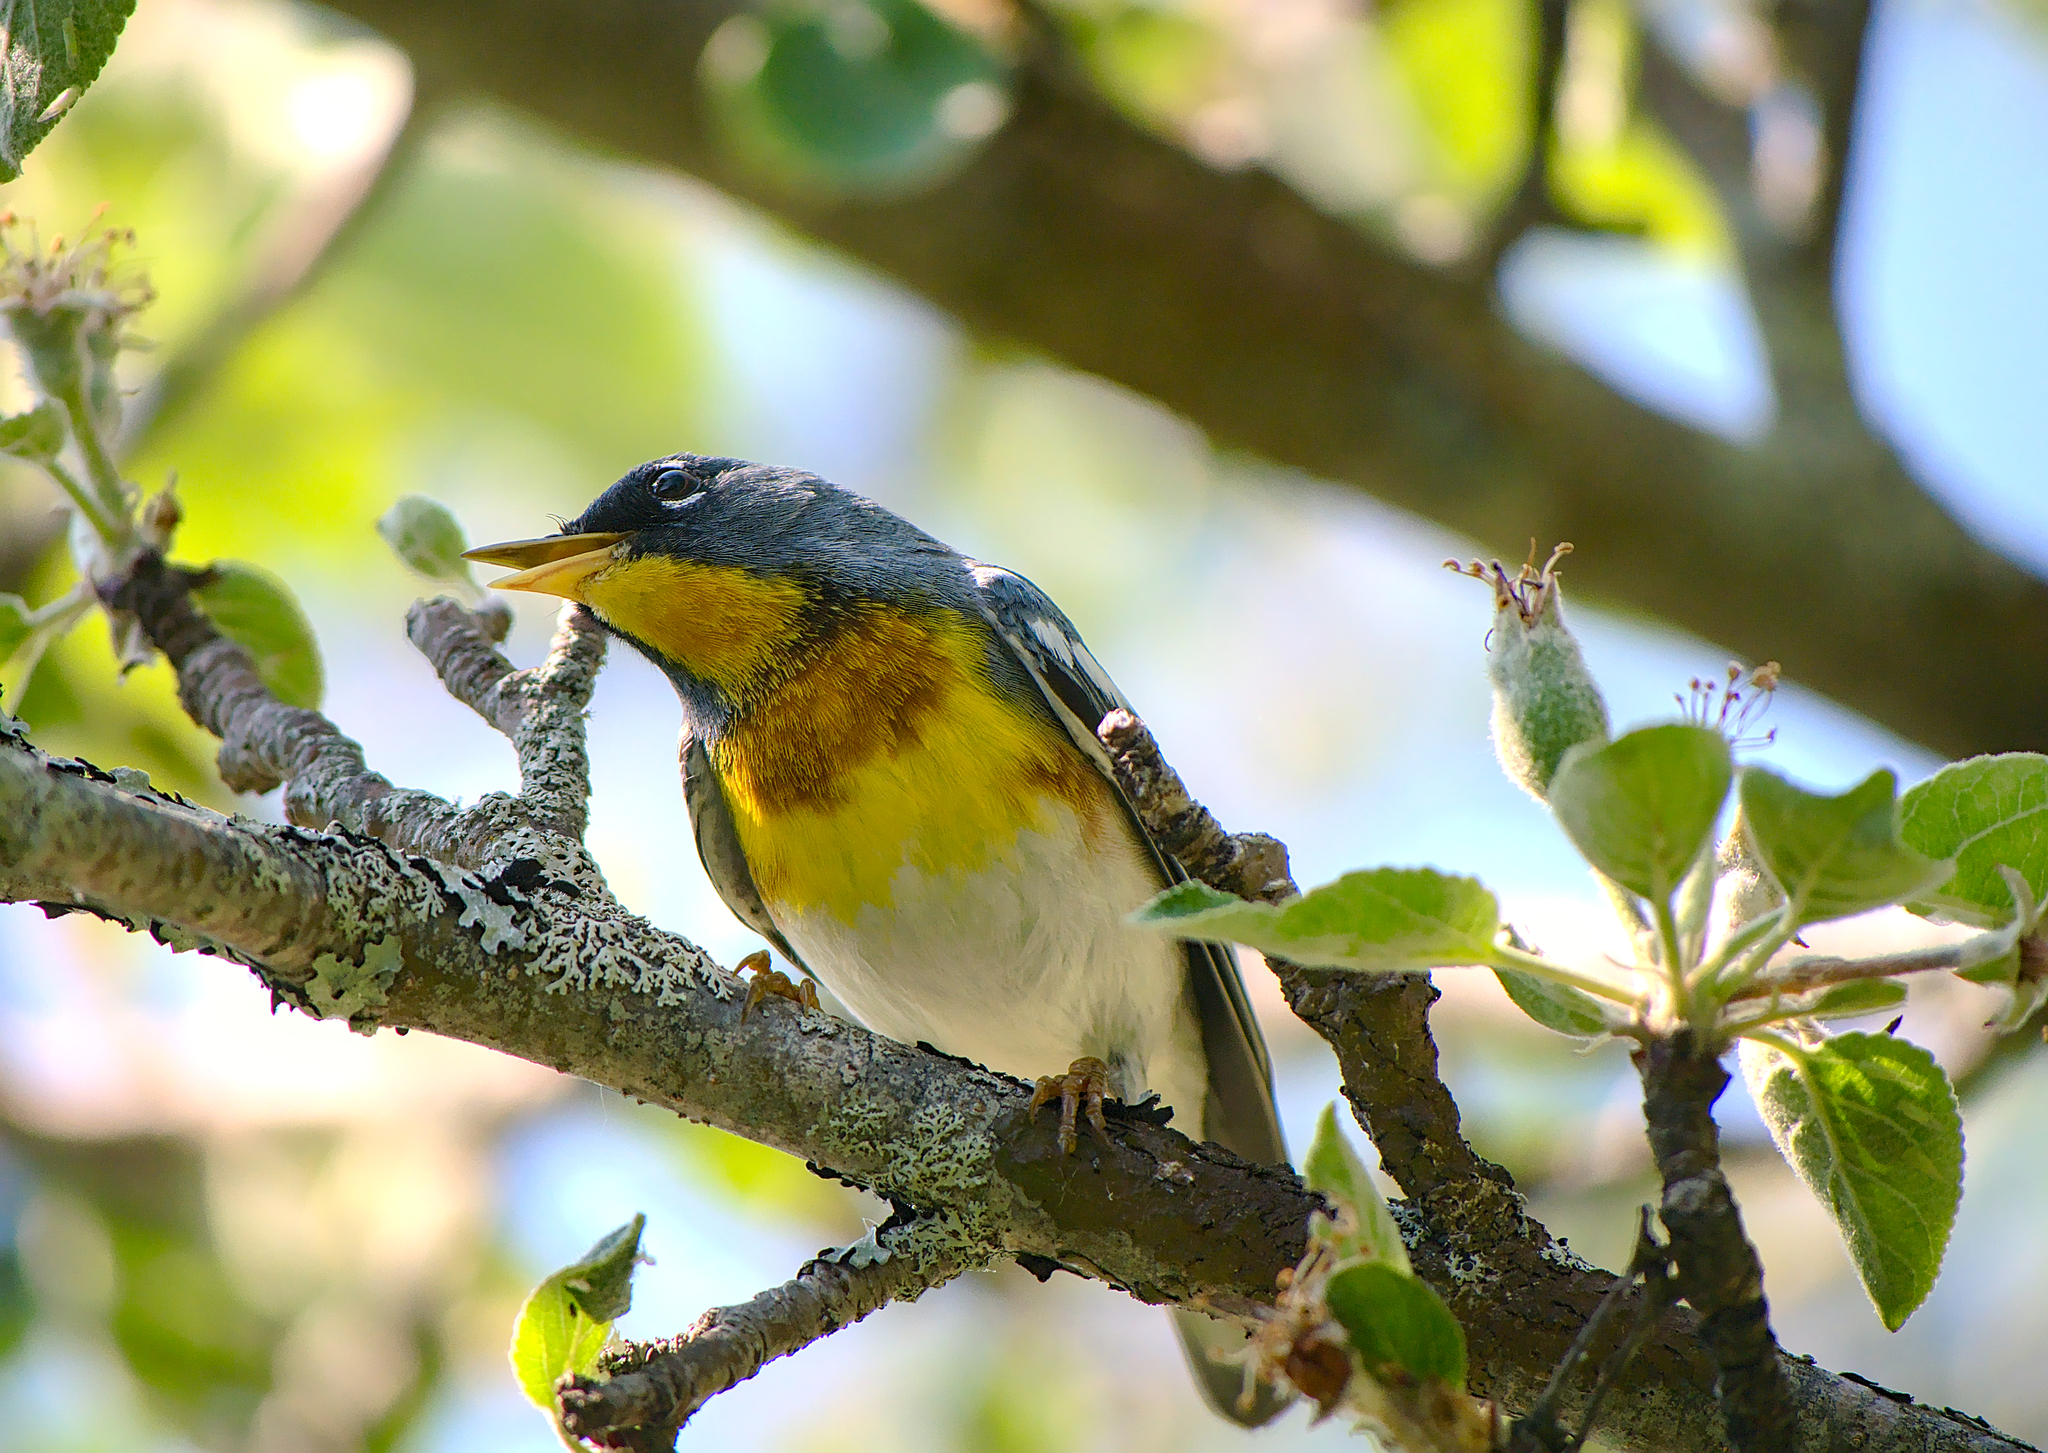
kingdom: Animalia
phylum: Chordata
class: Aves
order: Passeriformes
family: Parulidae
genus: Setophaga
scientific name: Setophaga americana
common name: Northern parula
